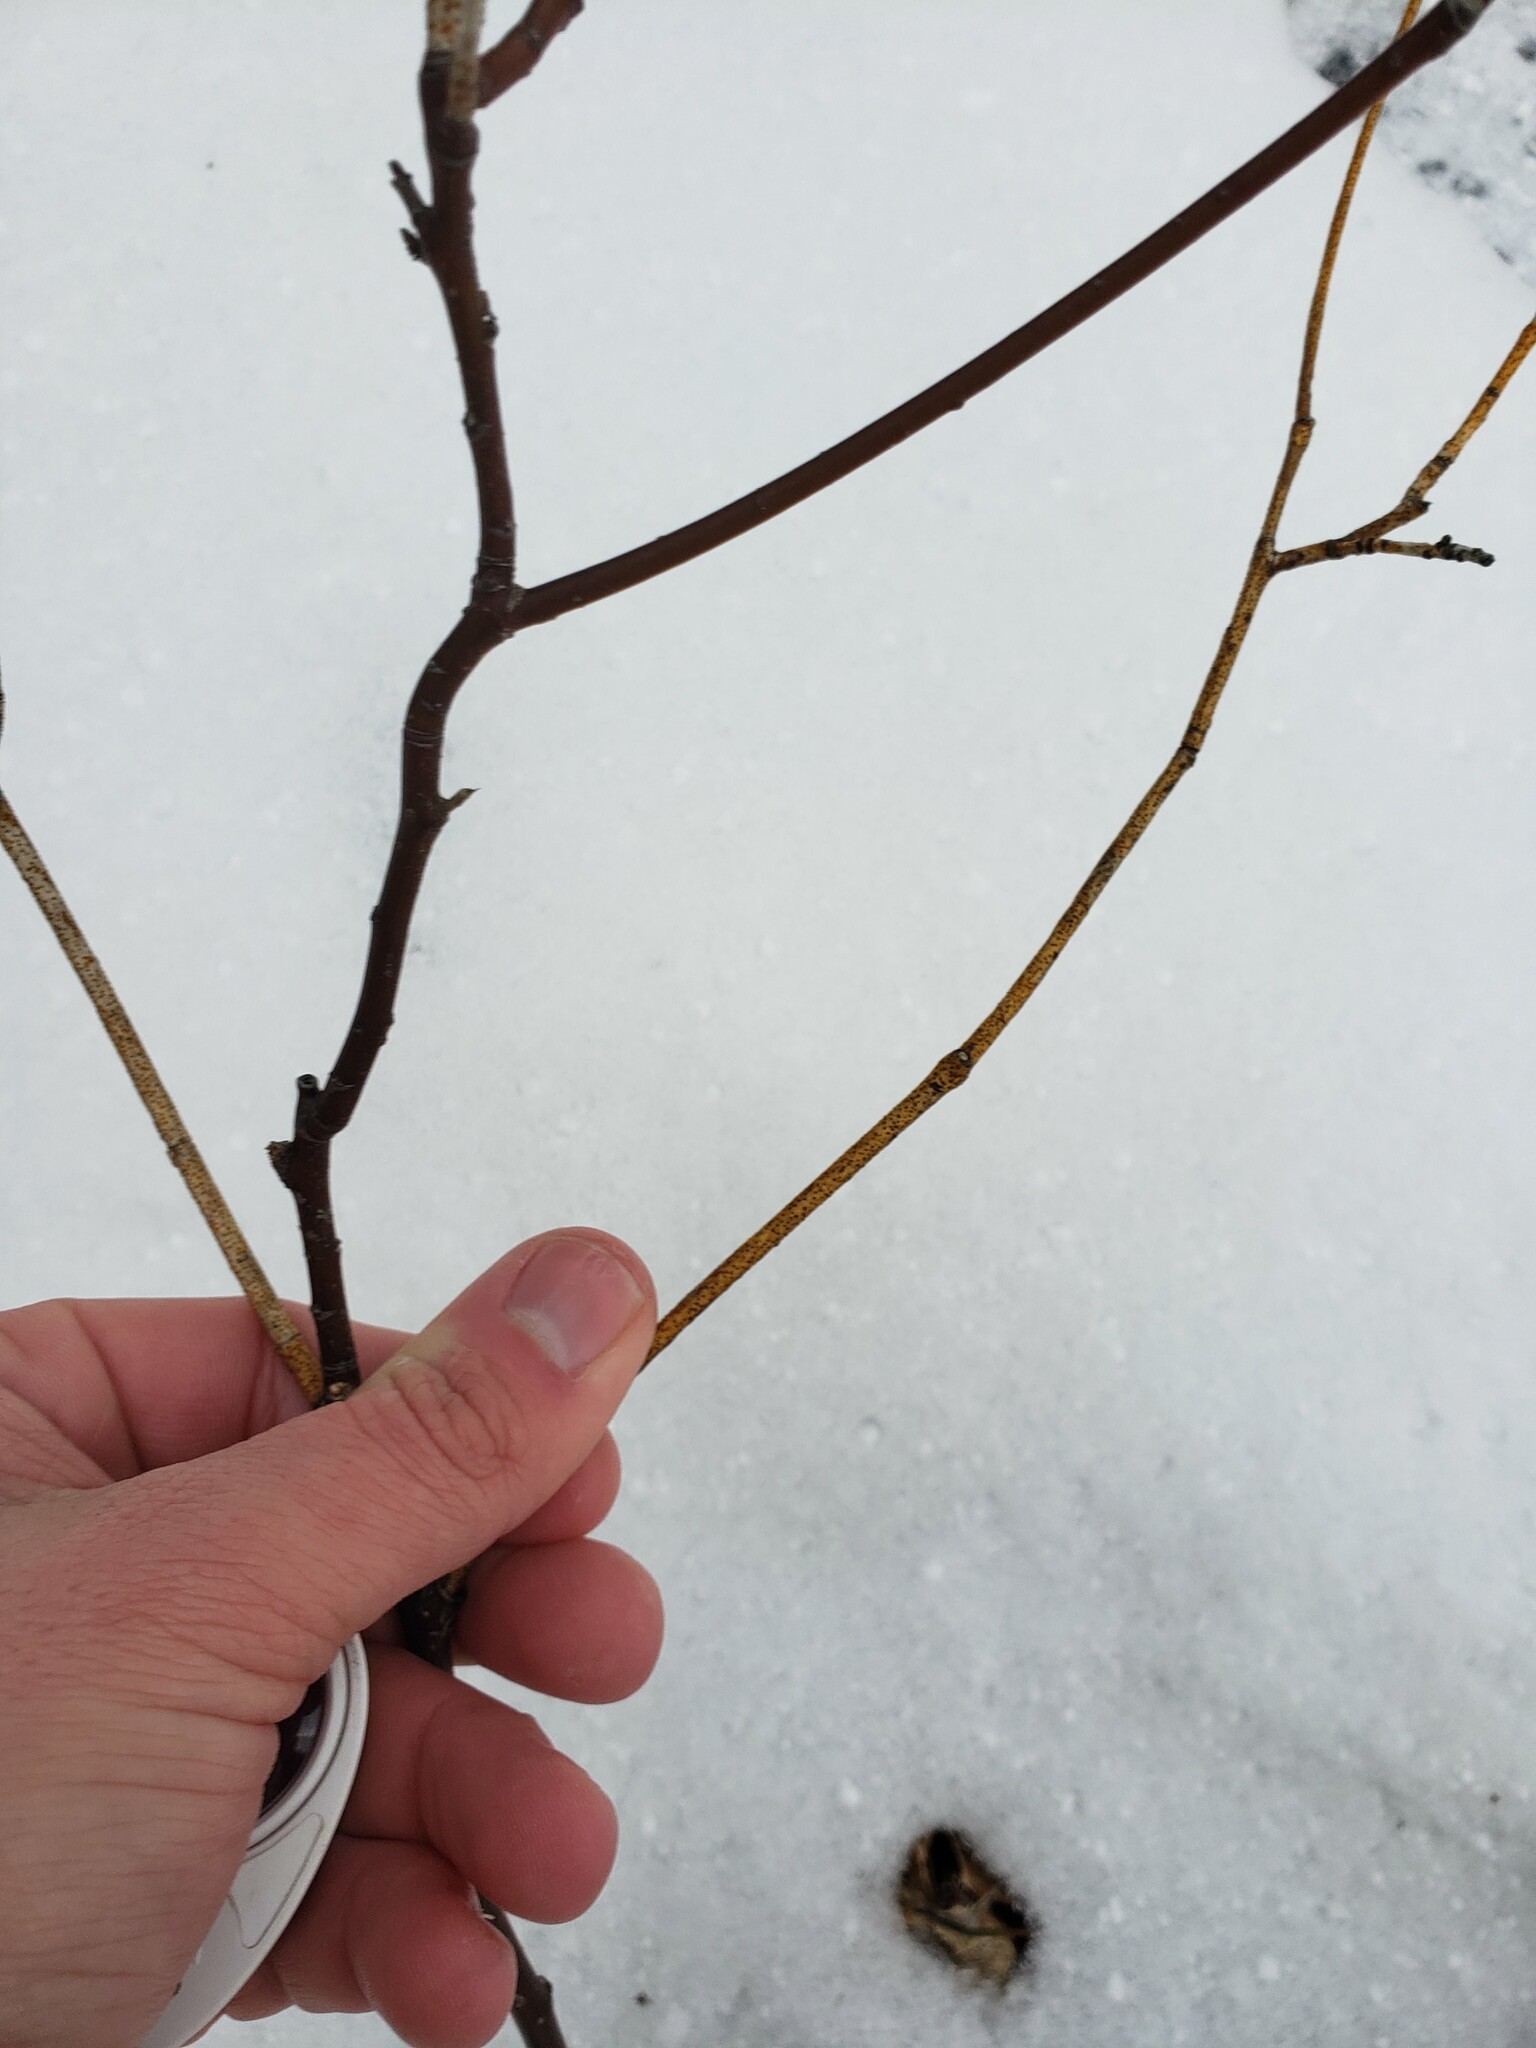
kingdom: Fungi
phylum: Ascomycota
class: Sordariomycetes
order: Diaporthales
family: Cryphonectriaceae
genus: Aurantioporthe
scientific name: Aurantioporthe corni
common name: Dogwood golden canker
